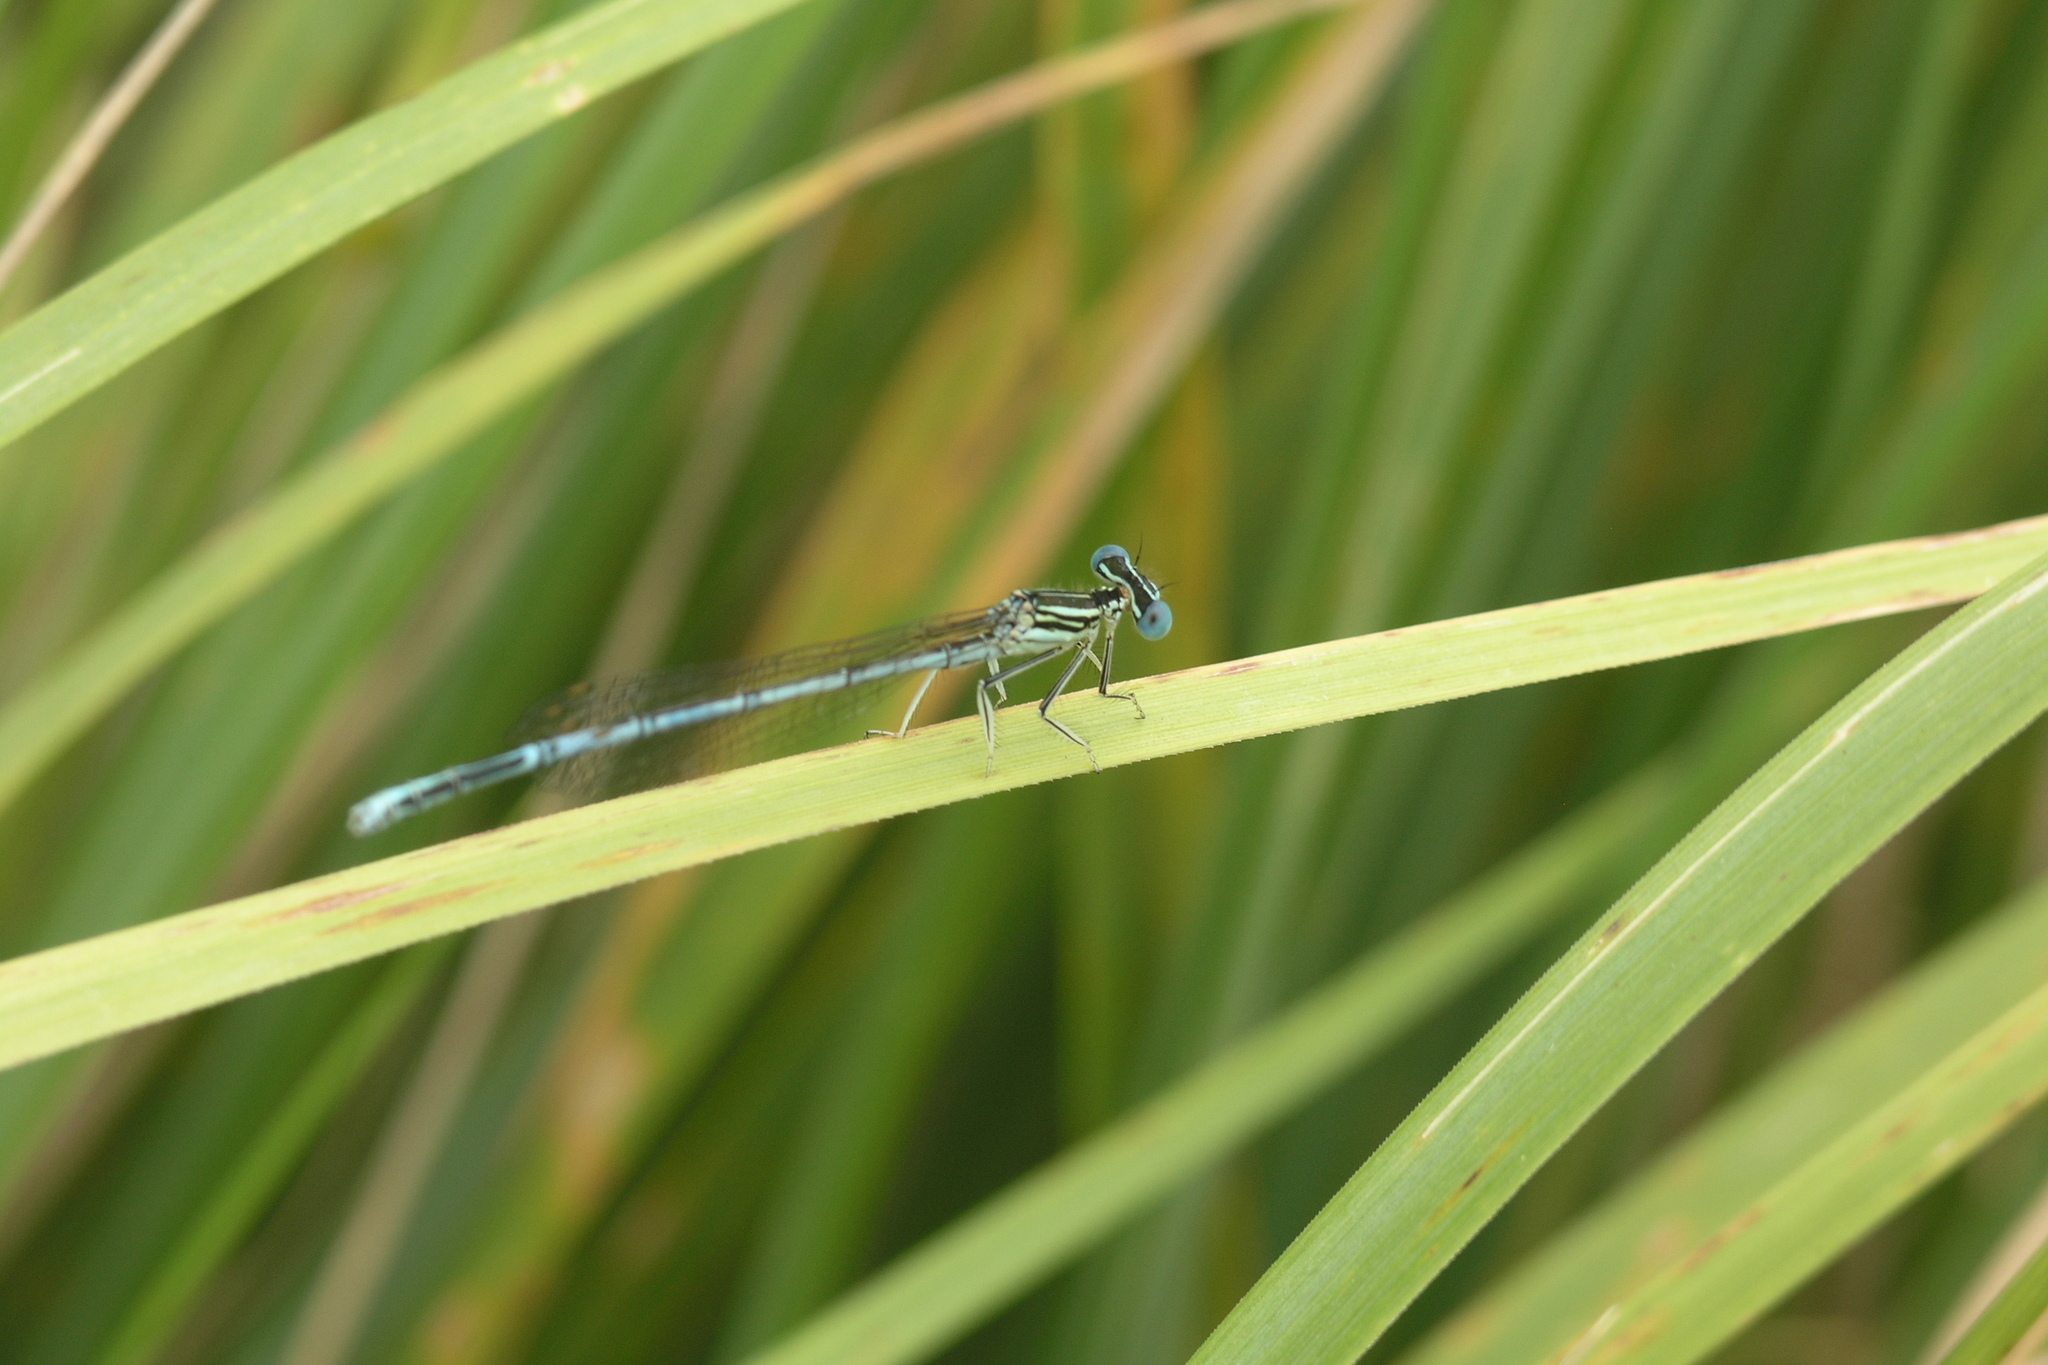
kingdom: Animalia
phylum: Arthropoda
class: Insecta
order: Odonata
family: Platycnemididae
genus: Platycnemis
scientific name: Platycnemis pennipes
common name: White-legged damselfly
